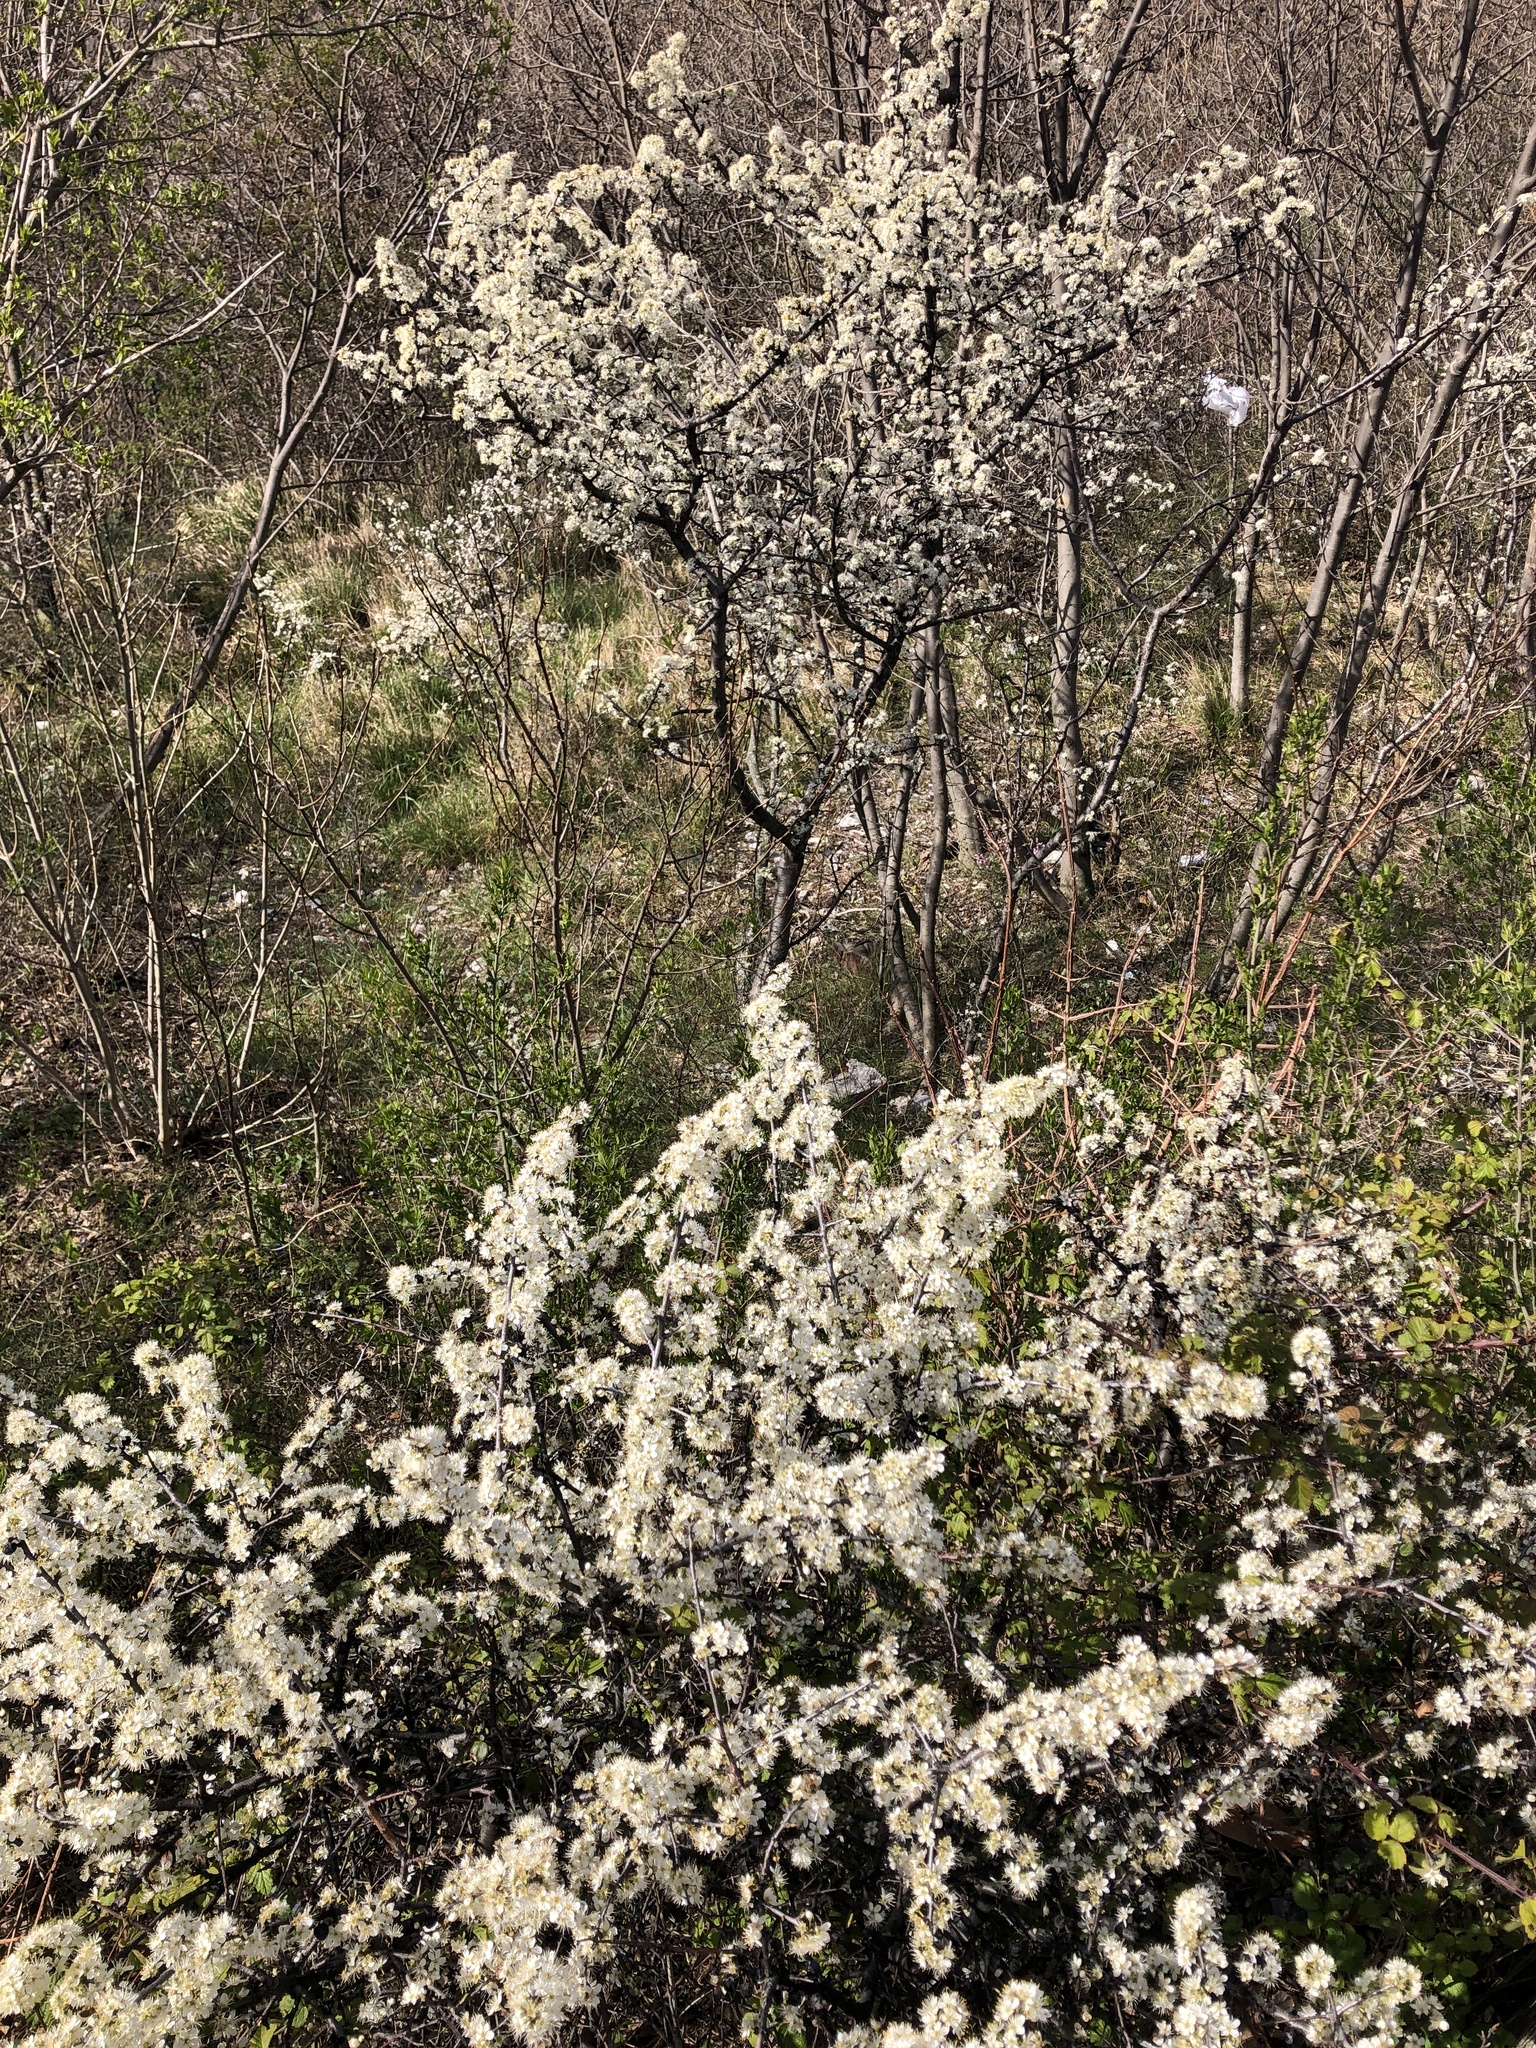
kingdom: Plantae
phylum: Tracheophyta
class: Magnoliopsida
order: Rosales
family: Rosaceae
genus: Prunus
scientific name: Prunus spinosa
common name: Blackthorn
